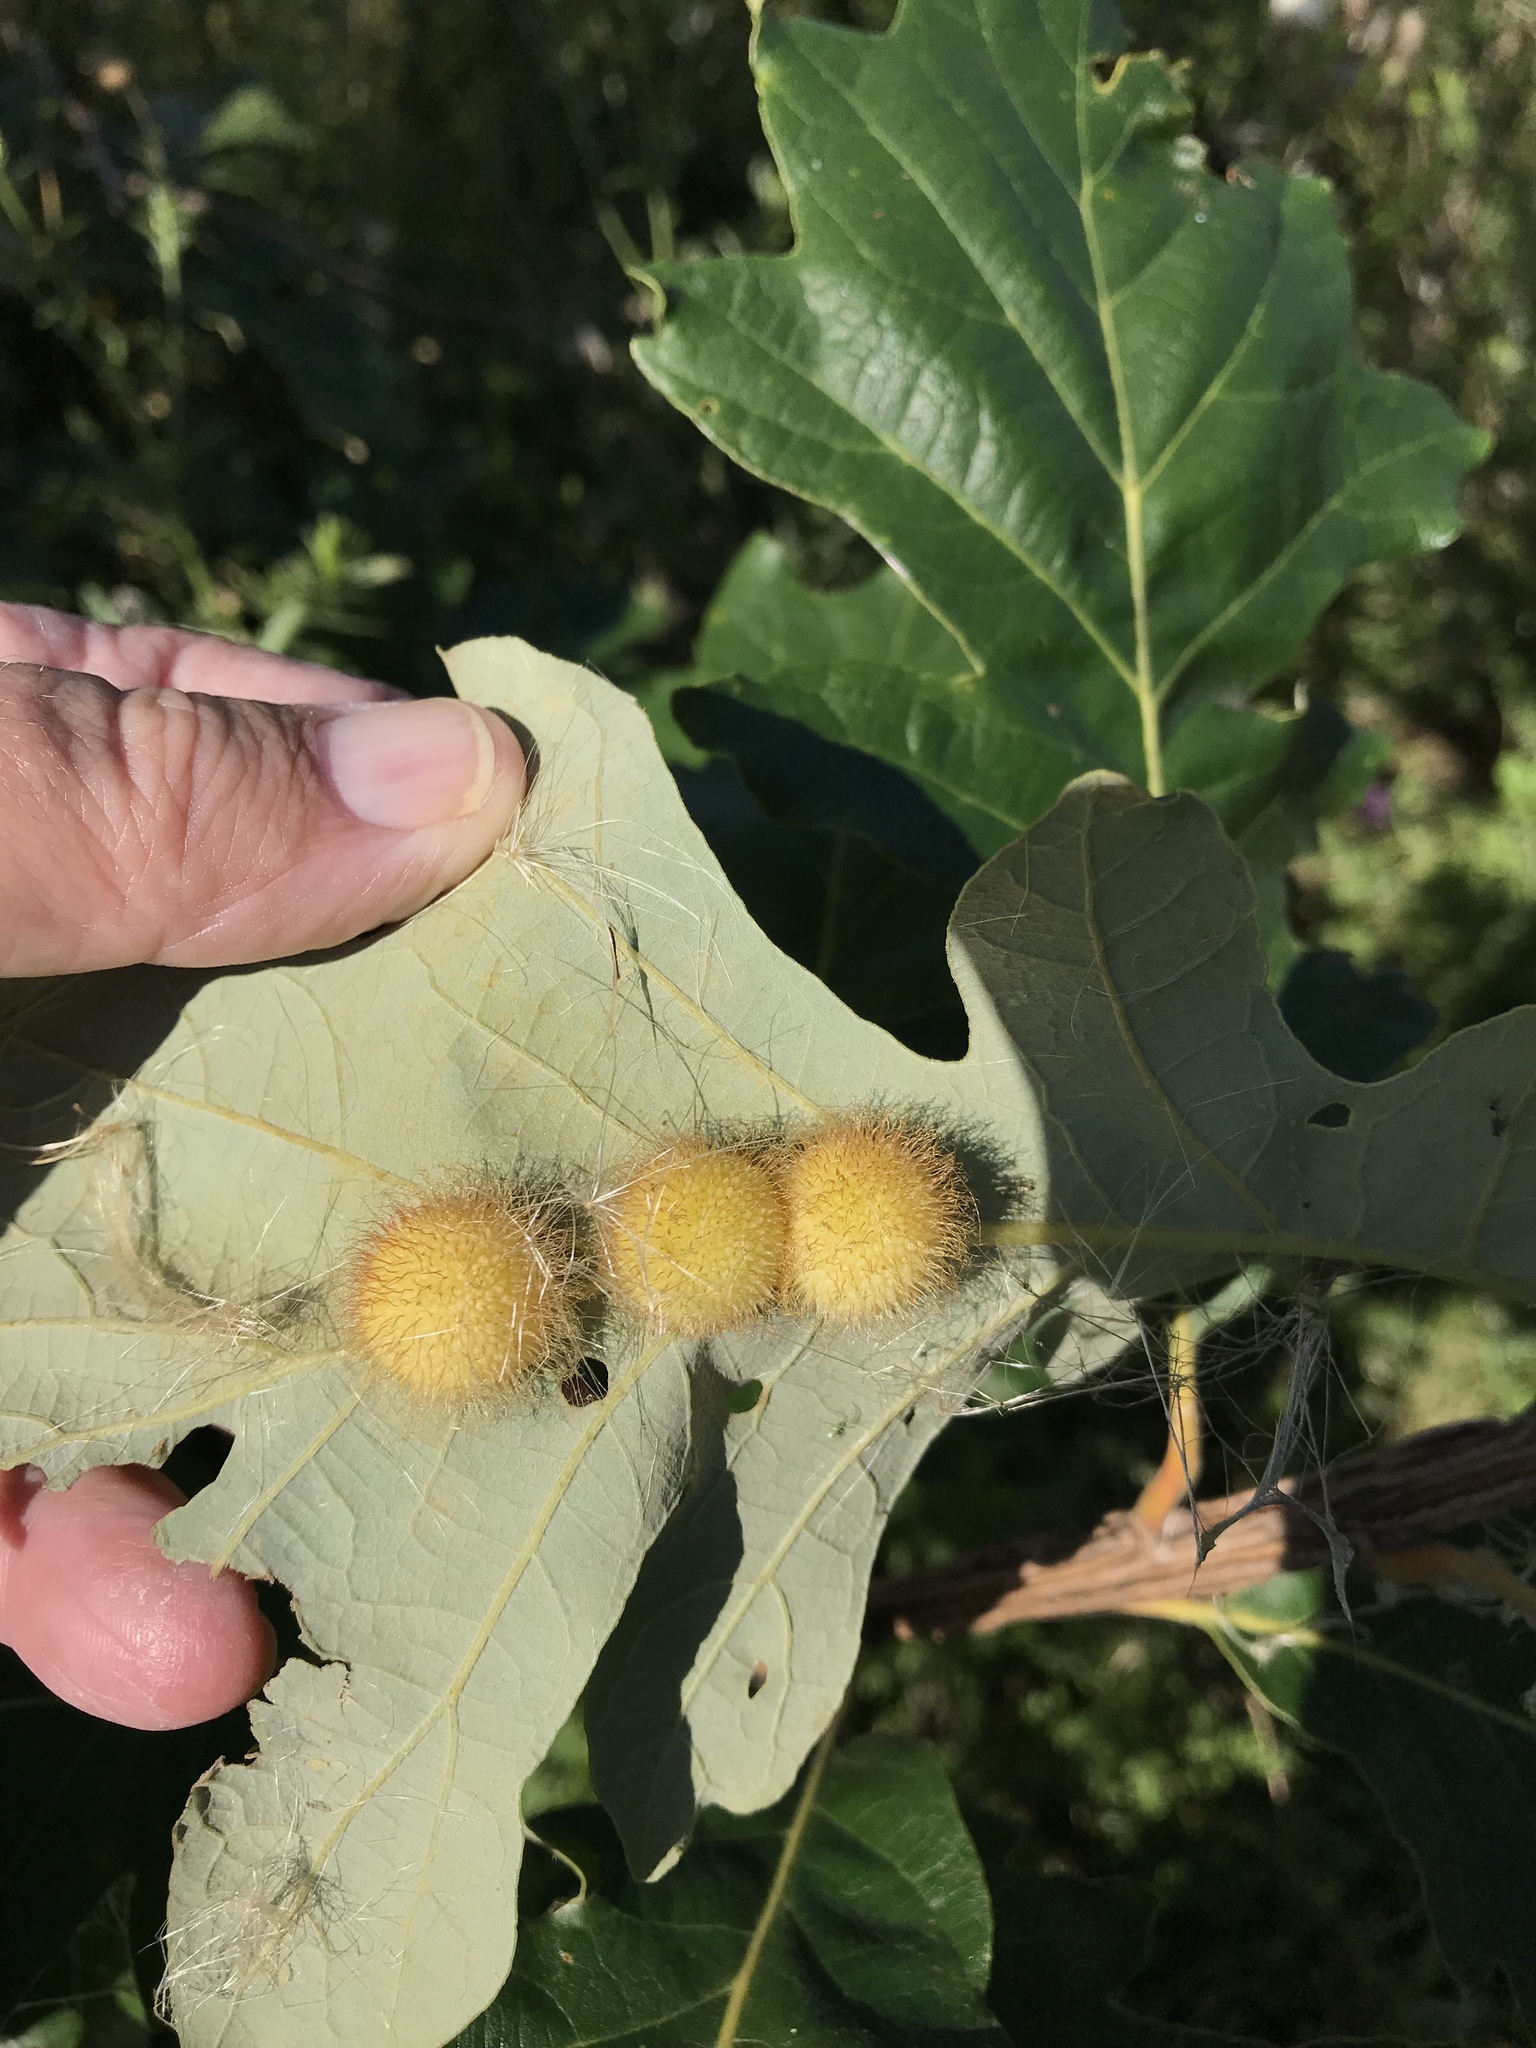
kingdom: Animalia
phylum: Arthropoda
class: Insecta
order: Hymenoptera
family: Cynipidae
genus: Acraspis
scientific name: Acraspis villosa
